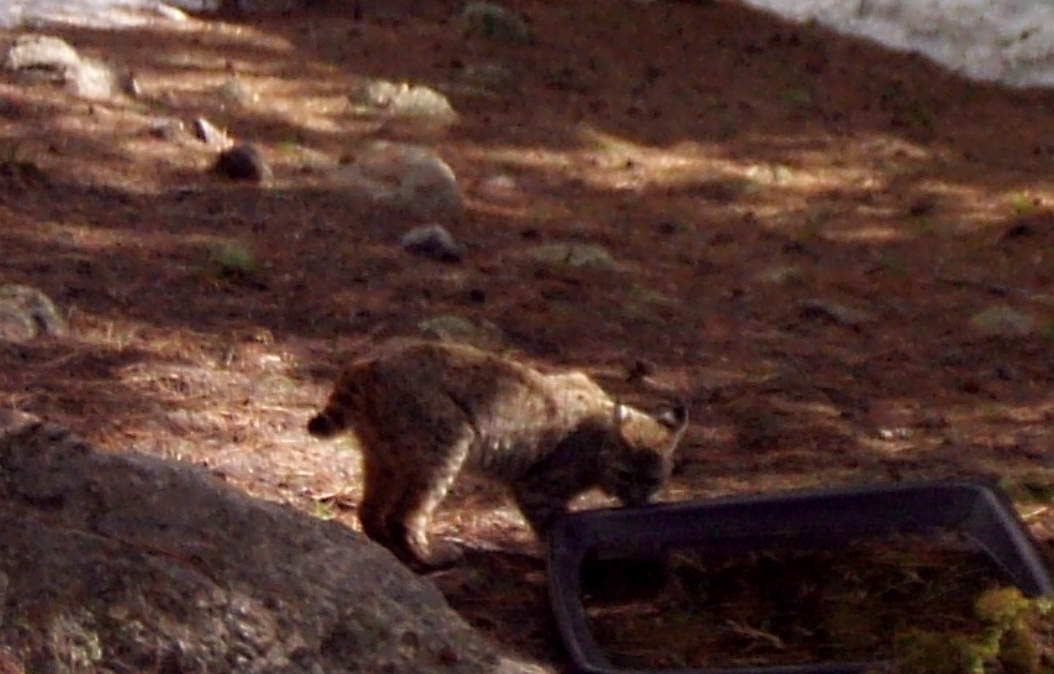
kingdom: Animalia
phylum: Chordata
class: Mammalia
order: Carnivora
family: Felidae
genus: Lynx
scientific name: Lynx rufus
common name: Bobcat
